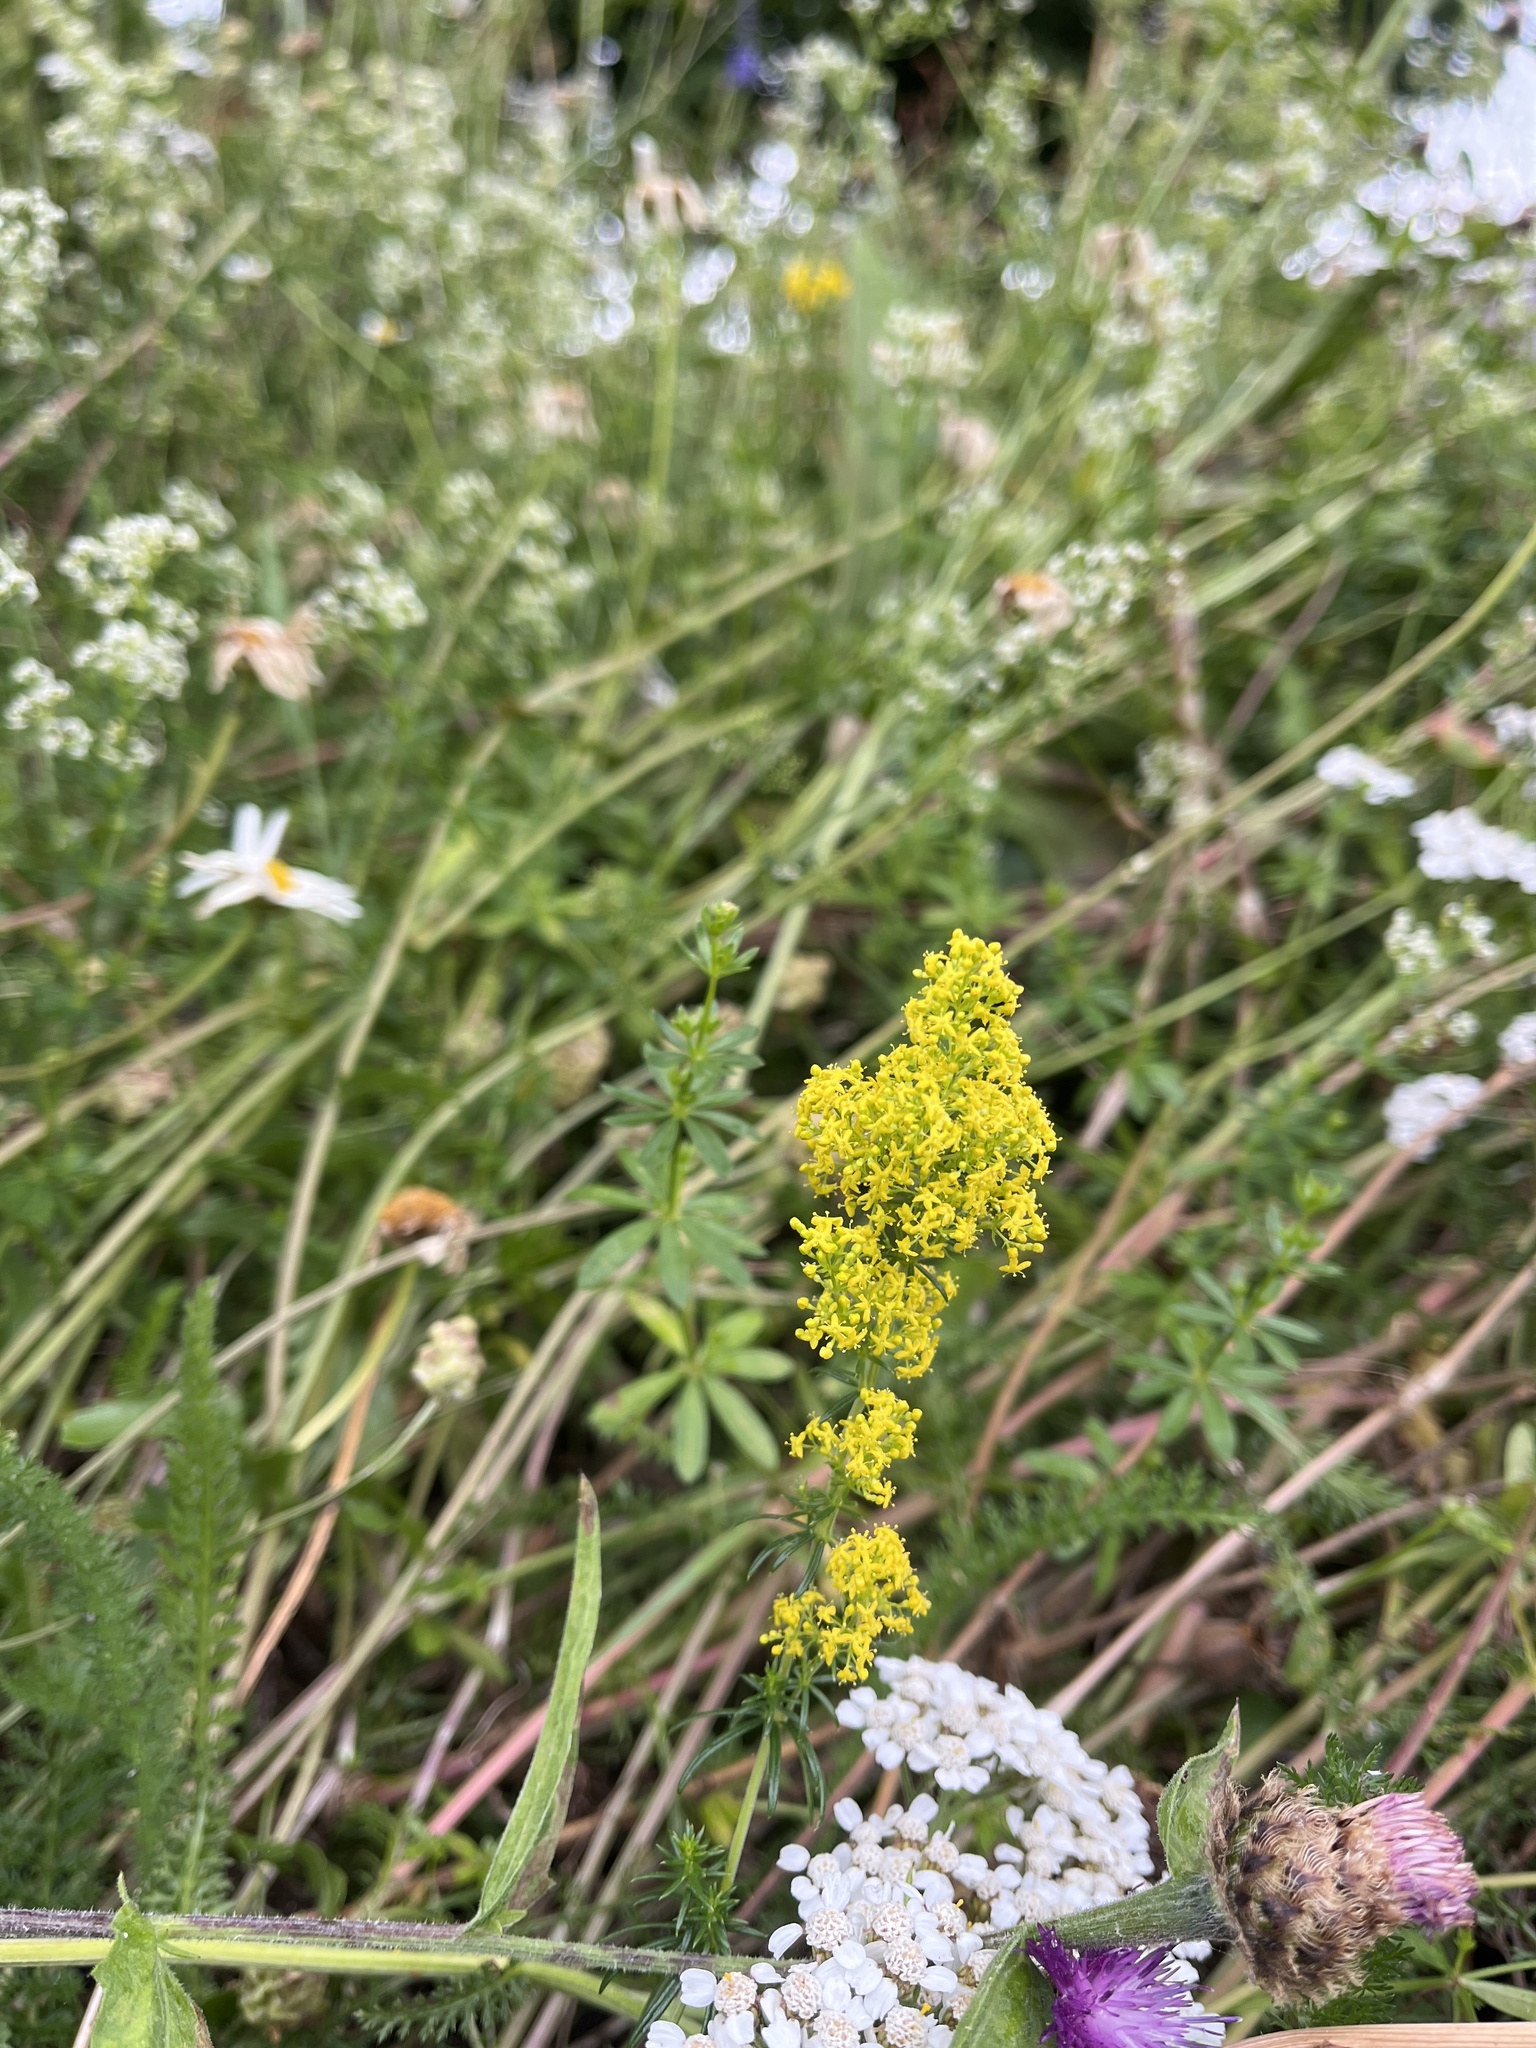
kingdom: Plantae
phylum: Tracheophyta
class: Magnoliopsida
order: Gentianales
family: Rubiaceae
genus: Galium
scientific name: Galium verum
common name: Lady's bedstraw
